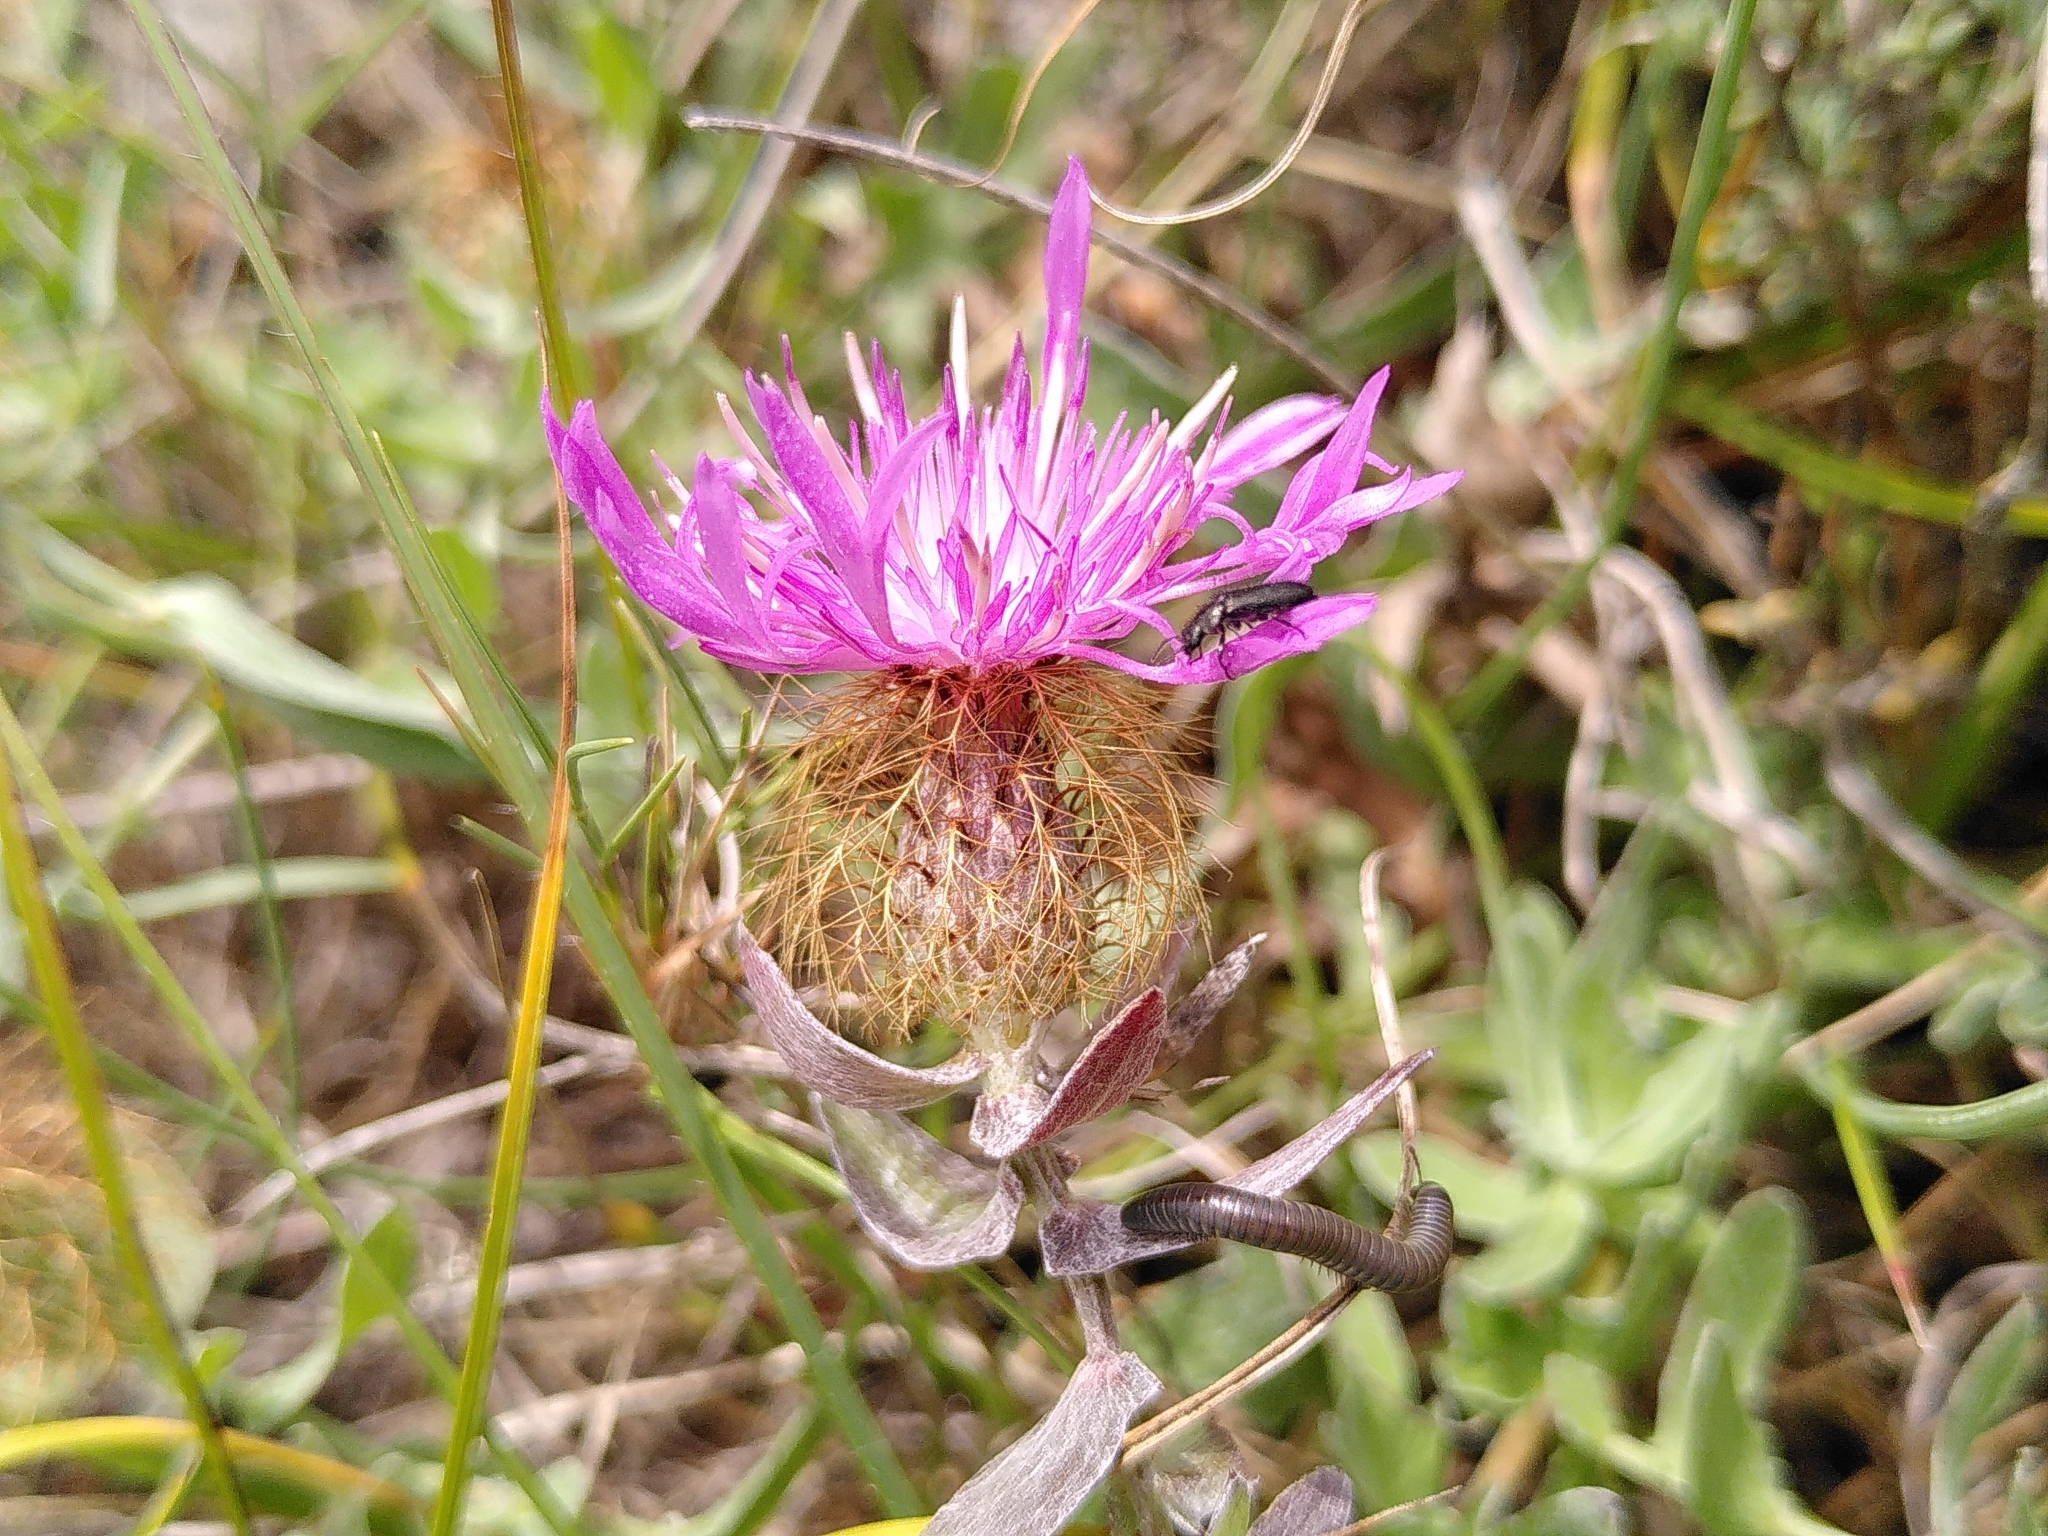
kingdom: Plantae
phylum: Tracheophyta
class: Magnoliopsida
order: Asterales
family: Asteraceae
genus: Centaurea
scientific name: Centaurea pectinata
